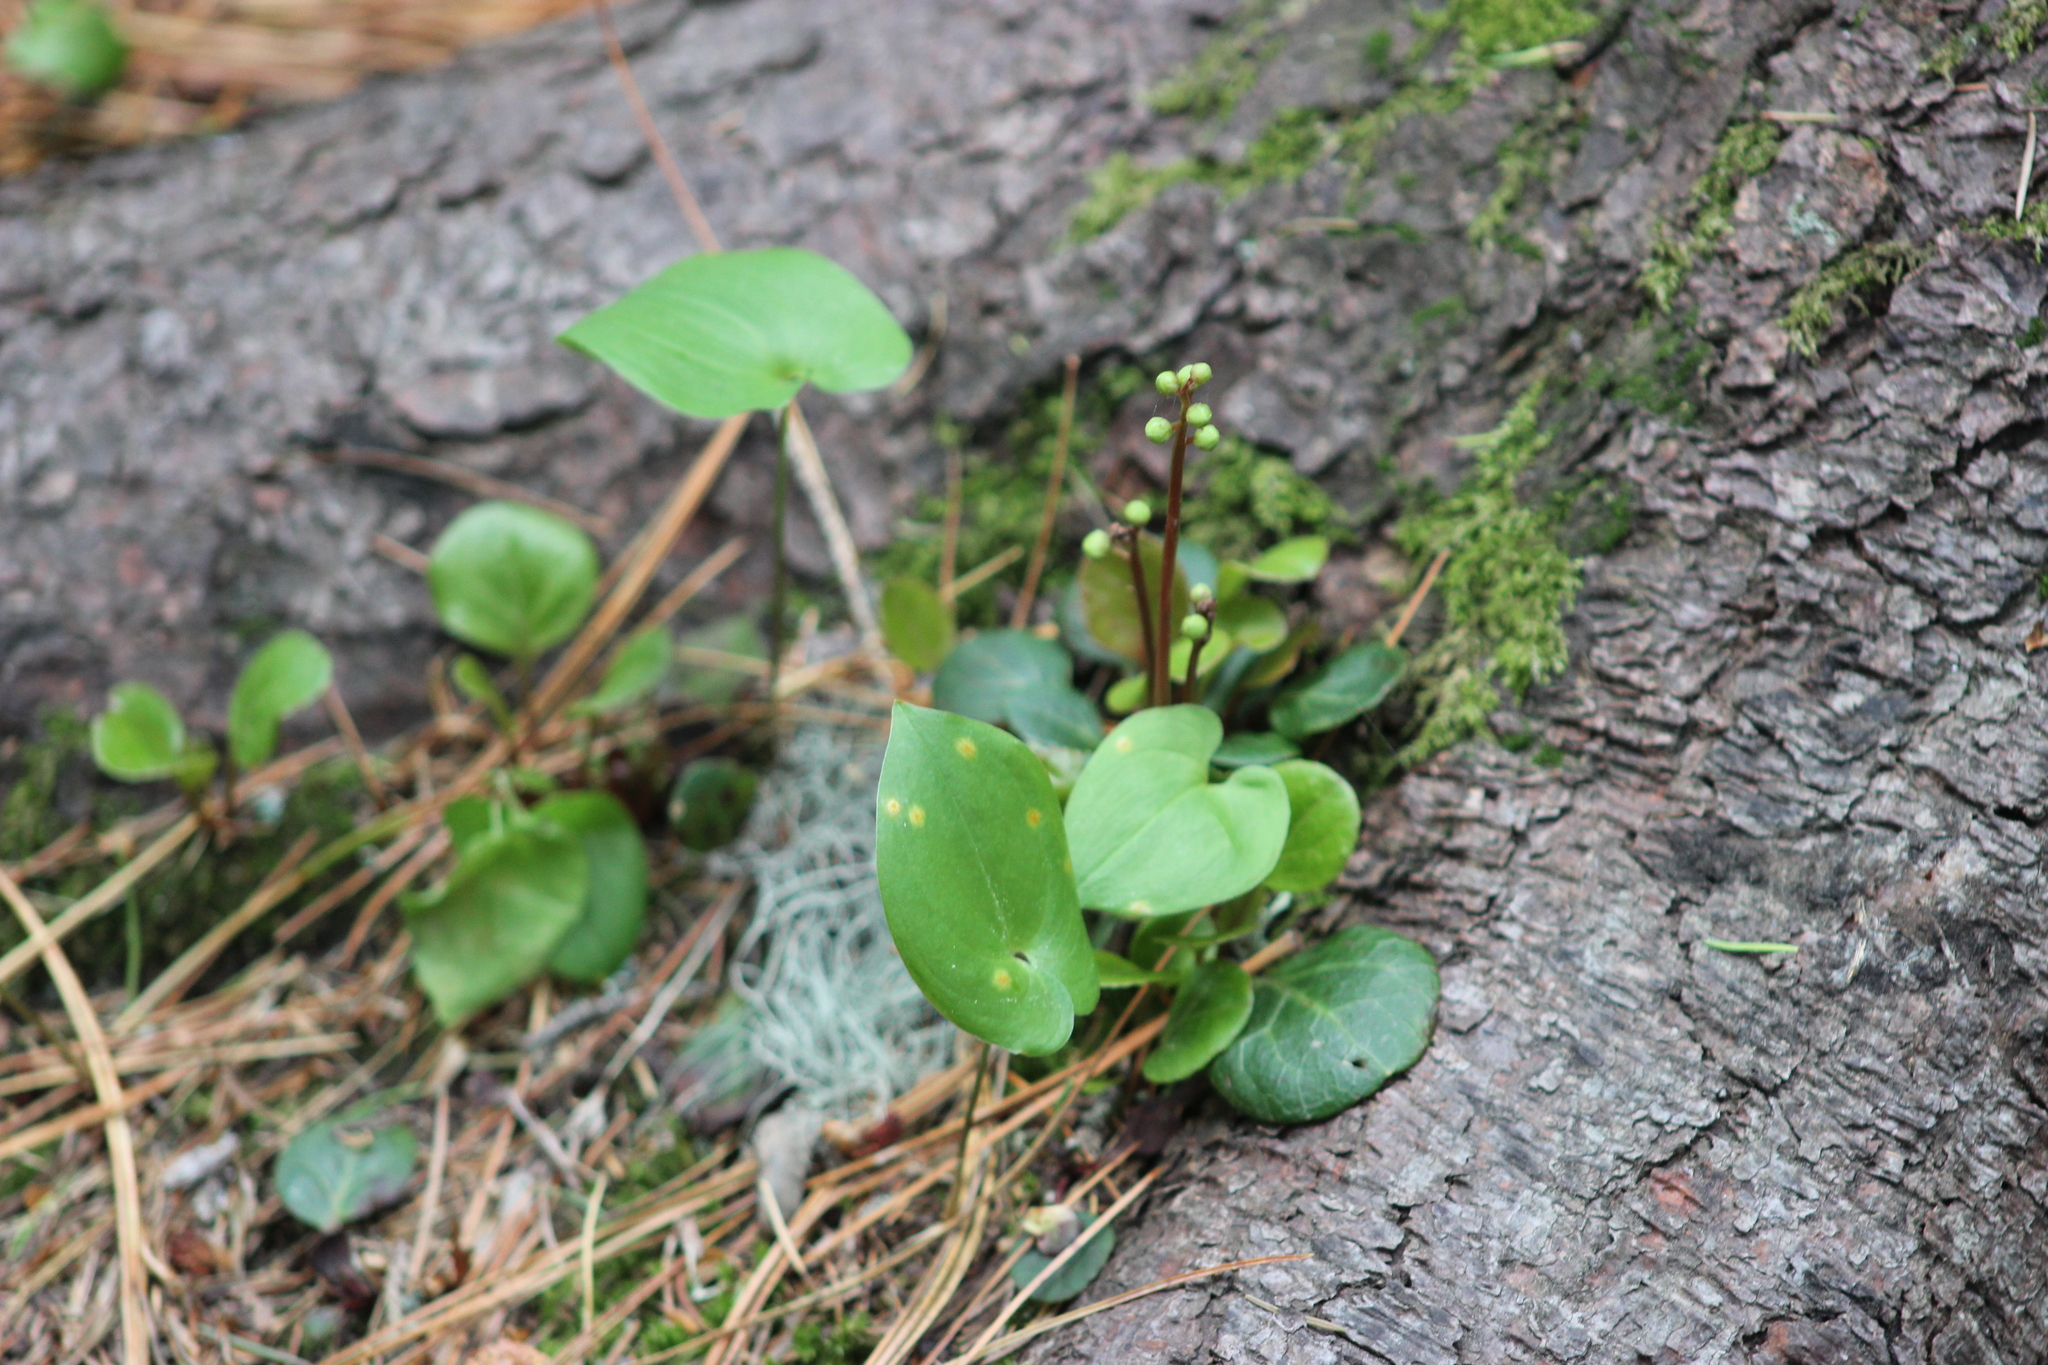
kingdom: Plantae
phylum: Tracheophyta
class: Magnoliopsida
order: Ericales
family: Ericaceae
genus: Pyrola
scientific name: Pyrola chlorantha
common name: Green wintergreen
